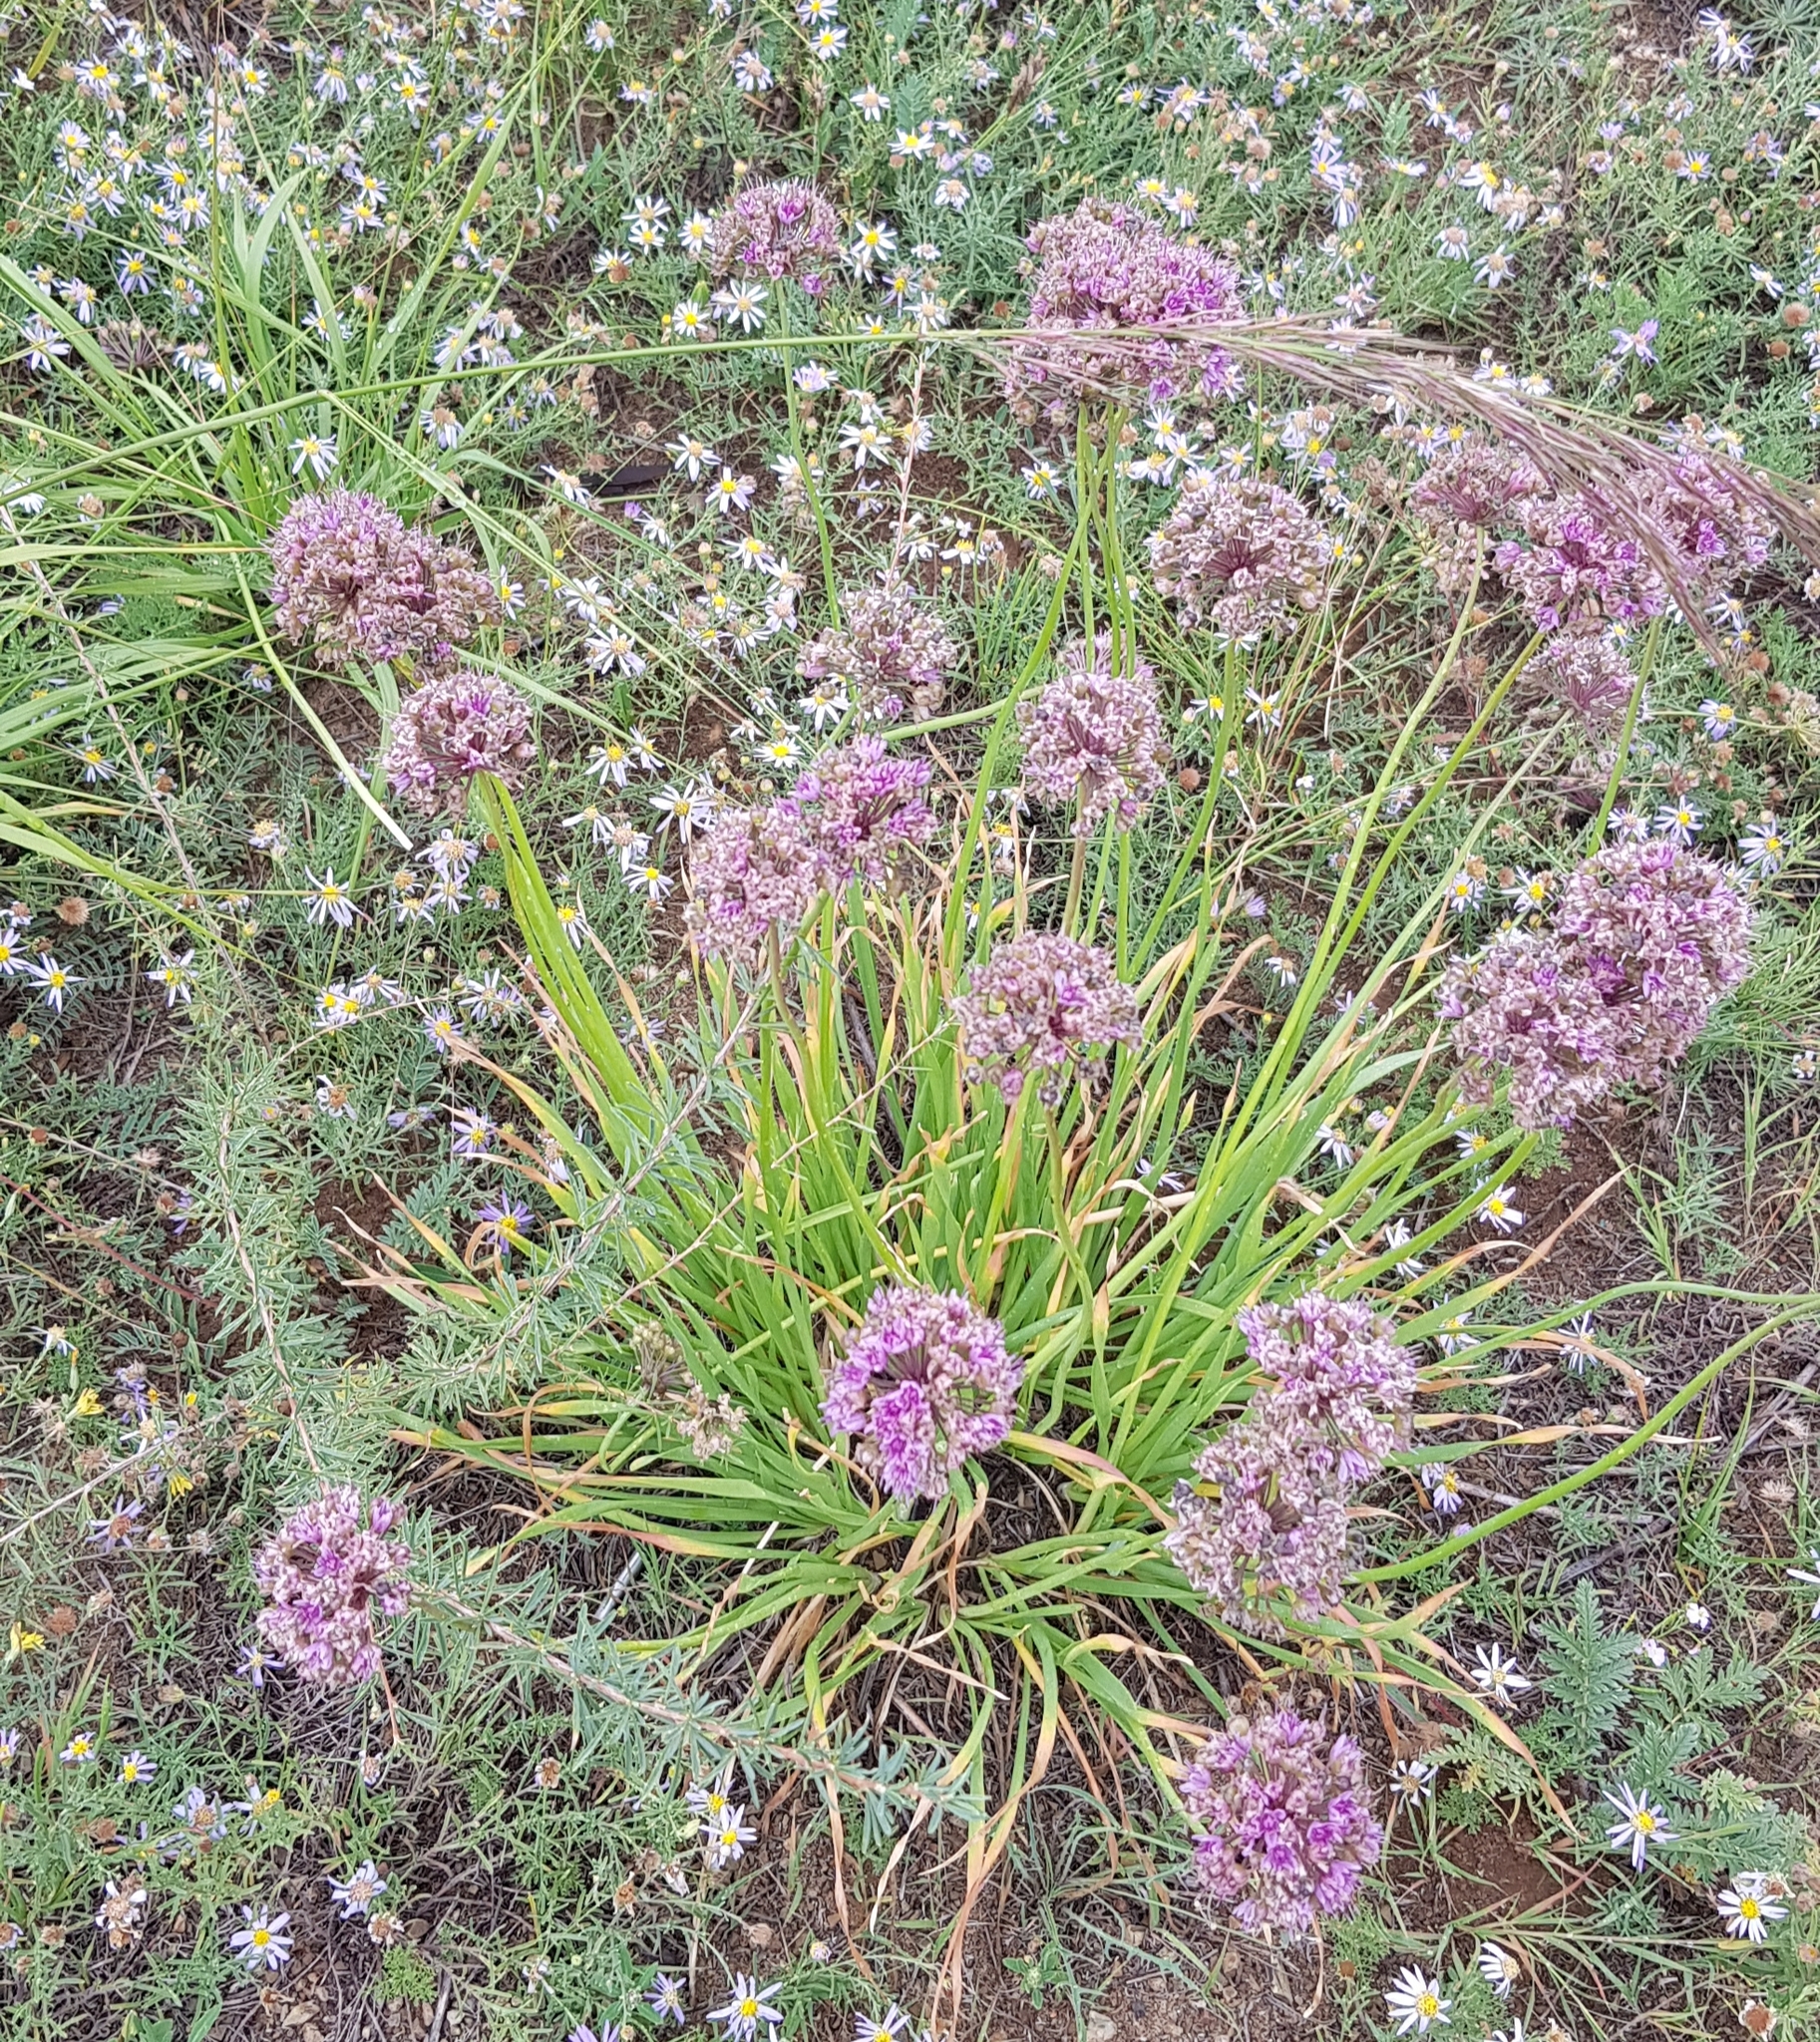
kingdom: Plantae
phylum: Tracheophyta
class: Liliopsida
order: Asparagales
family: Amaryllidaceae
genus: Allium
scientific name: Allium senescens
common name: German garlic
